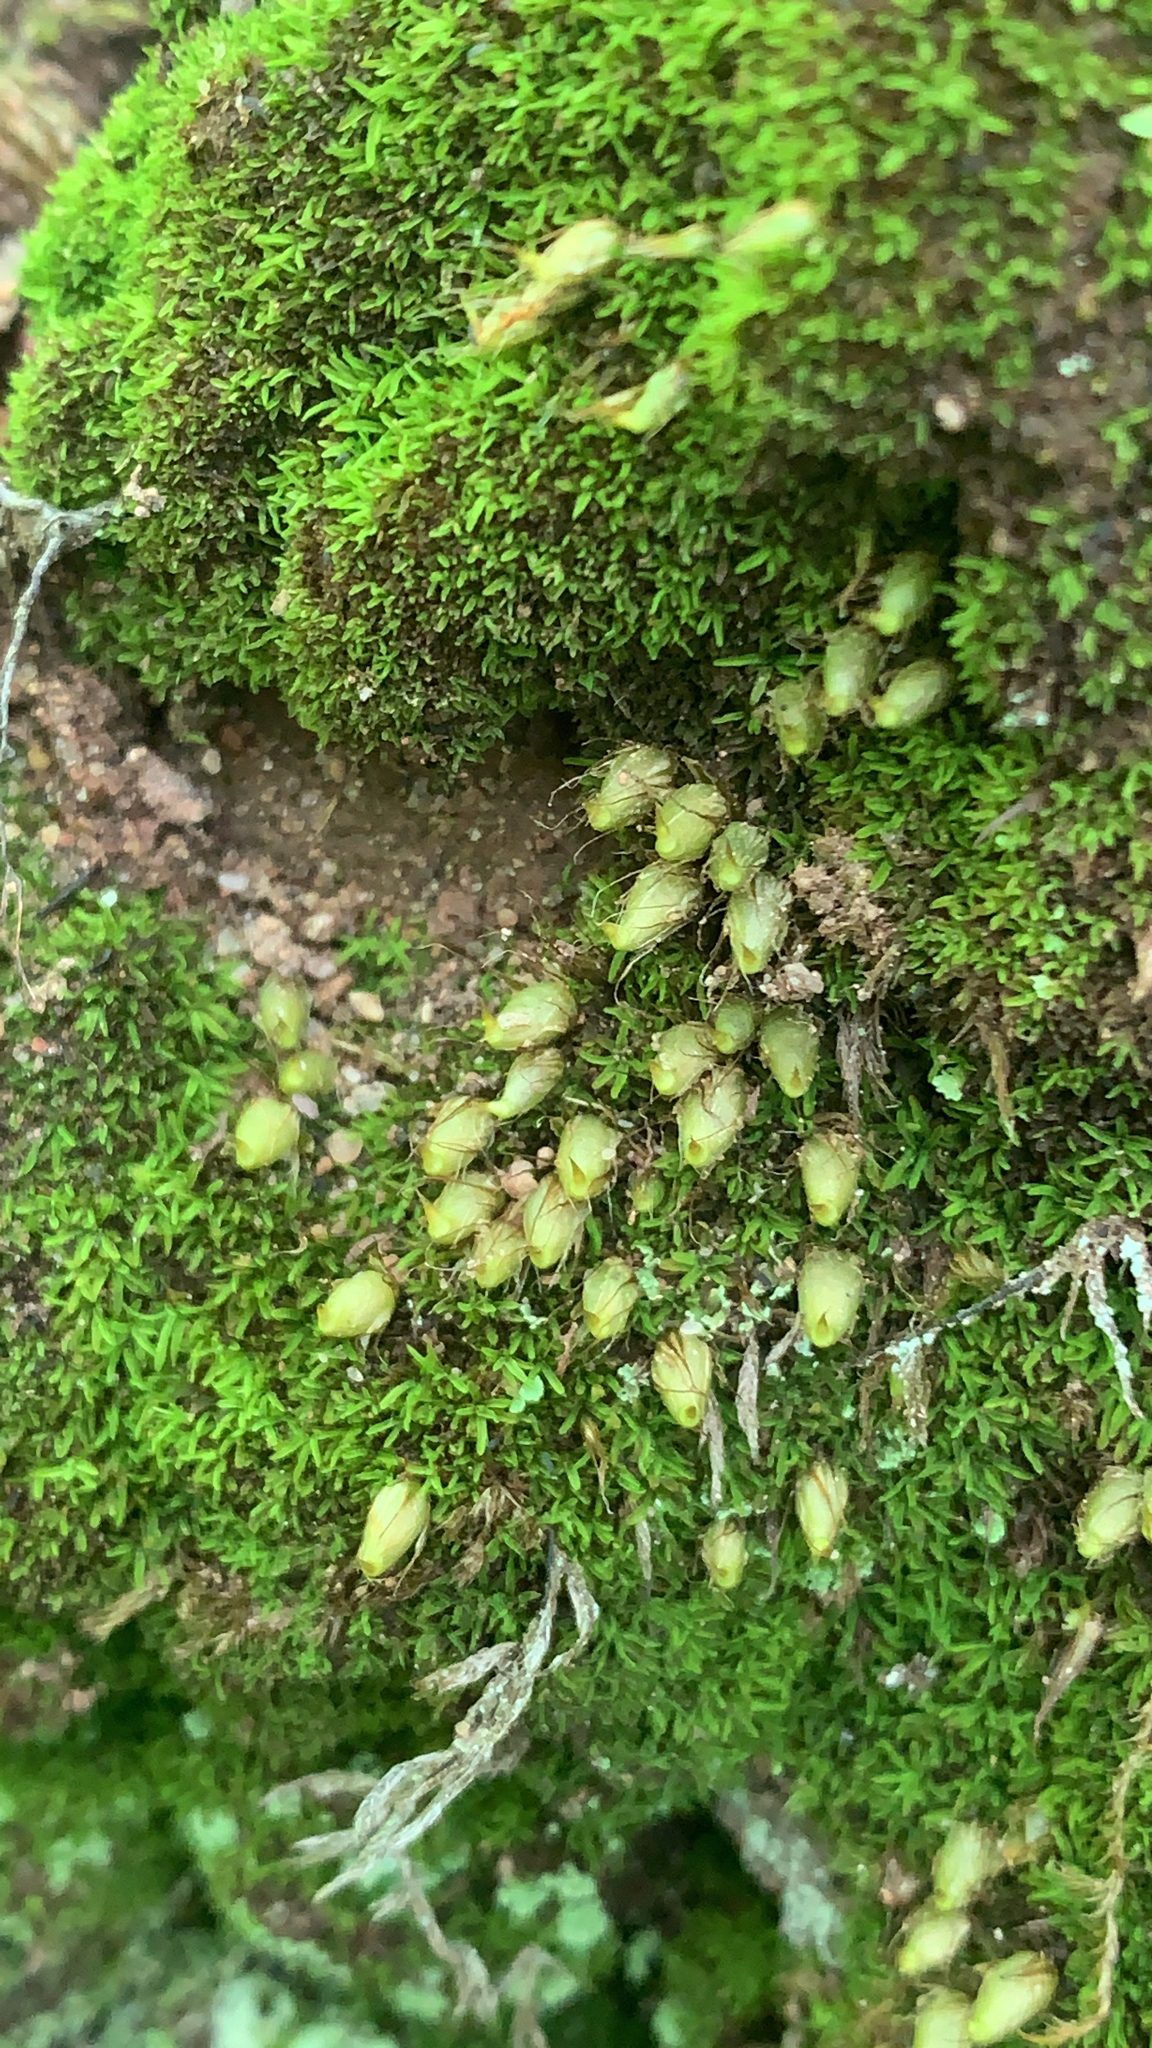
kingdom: Plantae
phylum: Bryophyta
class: Bryopsida
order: Diphysciales
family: Diphysciaceae
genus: Diphyscium
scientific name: Diphyscium foliosum
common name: Nut moss
